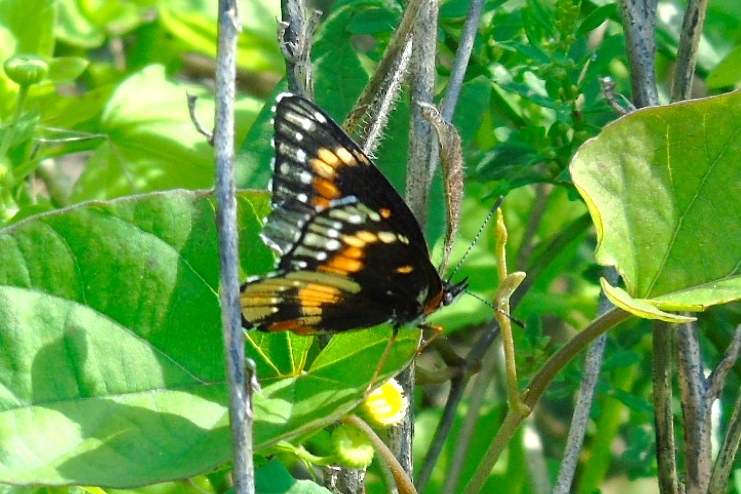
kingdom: Animalia
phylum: Arthropoda
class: Insecta
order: Lepidoptera
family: Nymphalidae
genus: Chlosyne
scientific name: Chlosyne lacinia
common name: Bordered patch
